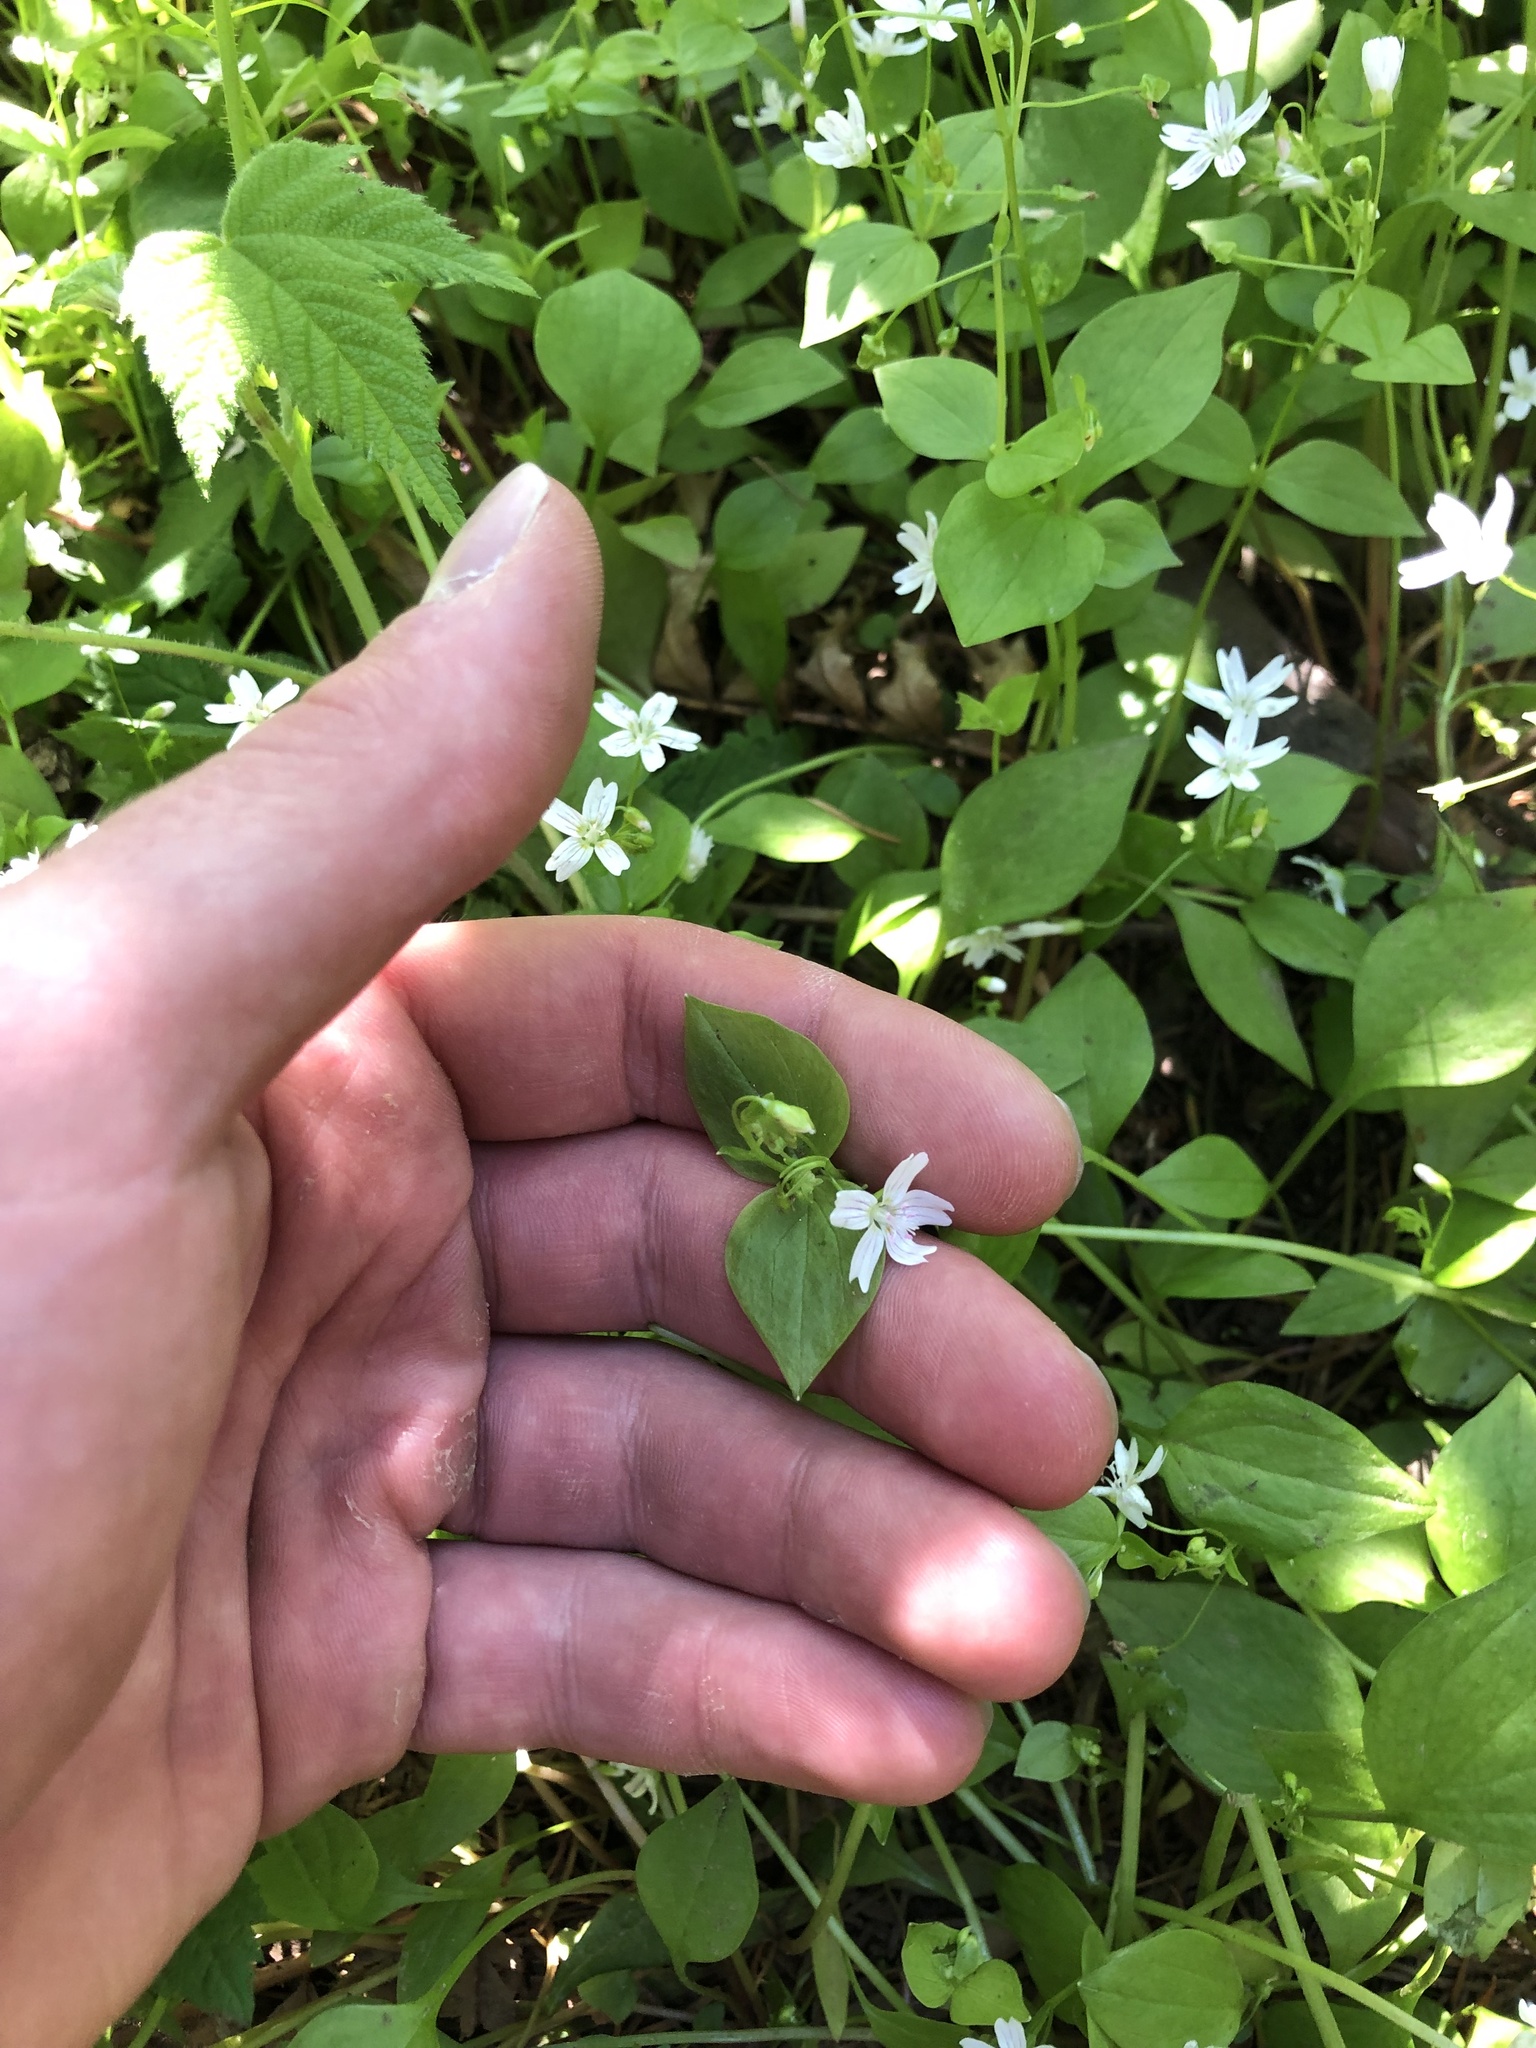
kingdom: Plantae
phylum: Tracheophyta
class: Magnoliopsida
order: Caryophyllales
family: Montiaceae
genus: Claytonia
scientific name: Claytonia sibirica
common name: Pink purslane
